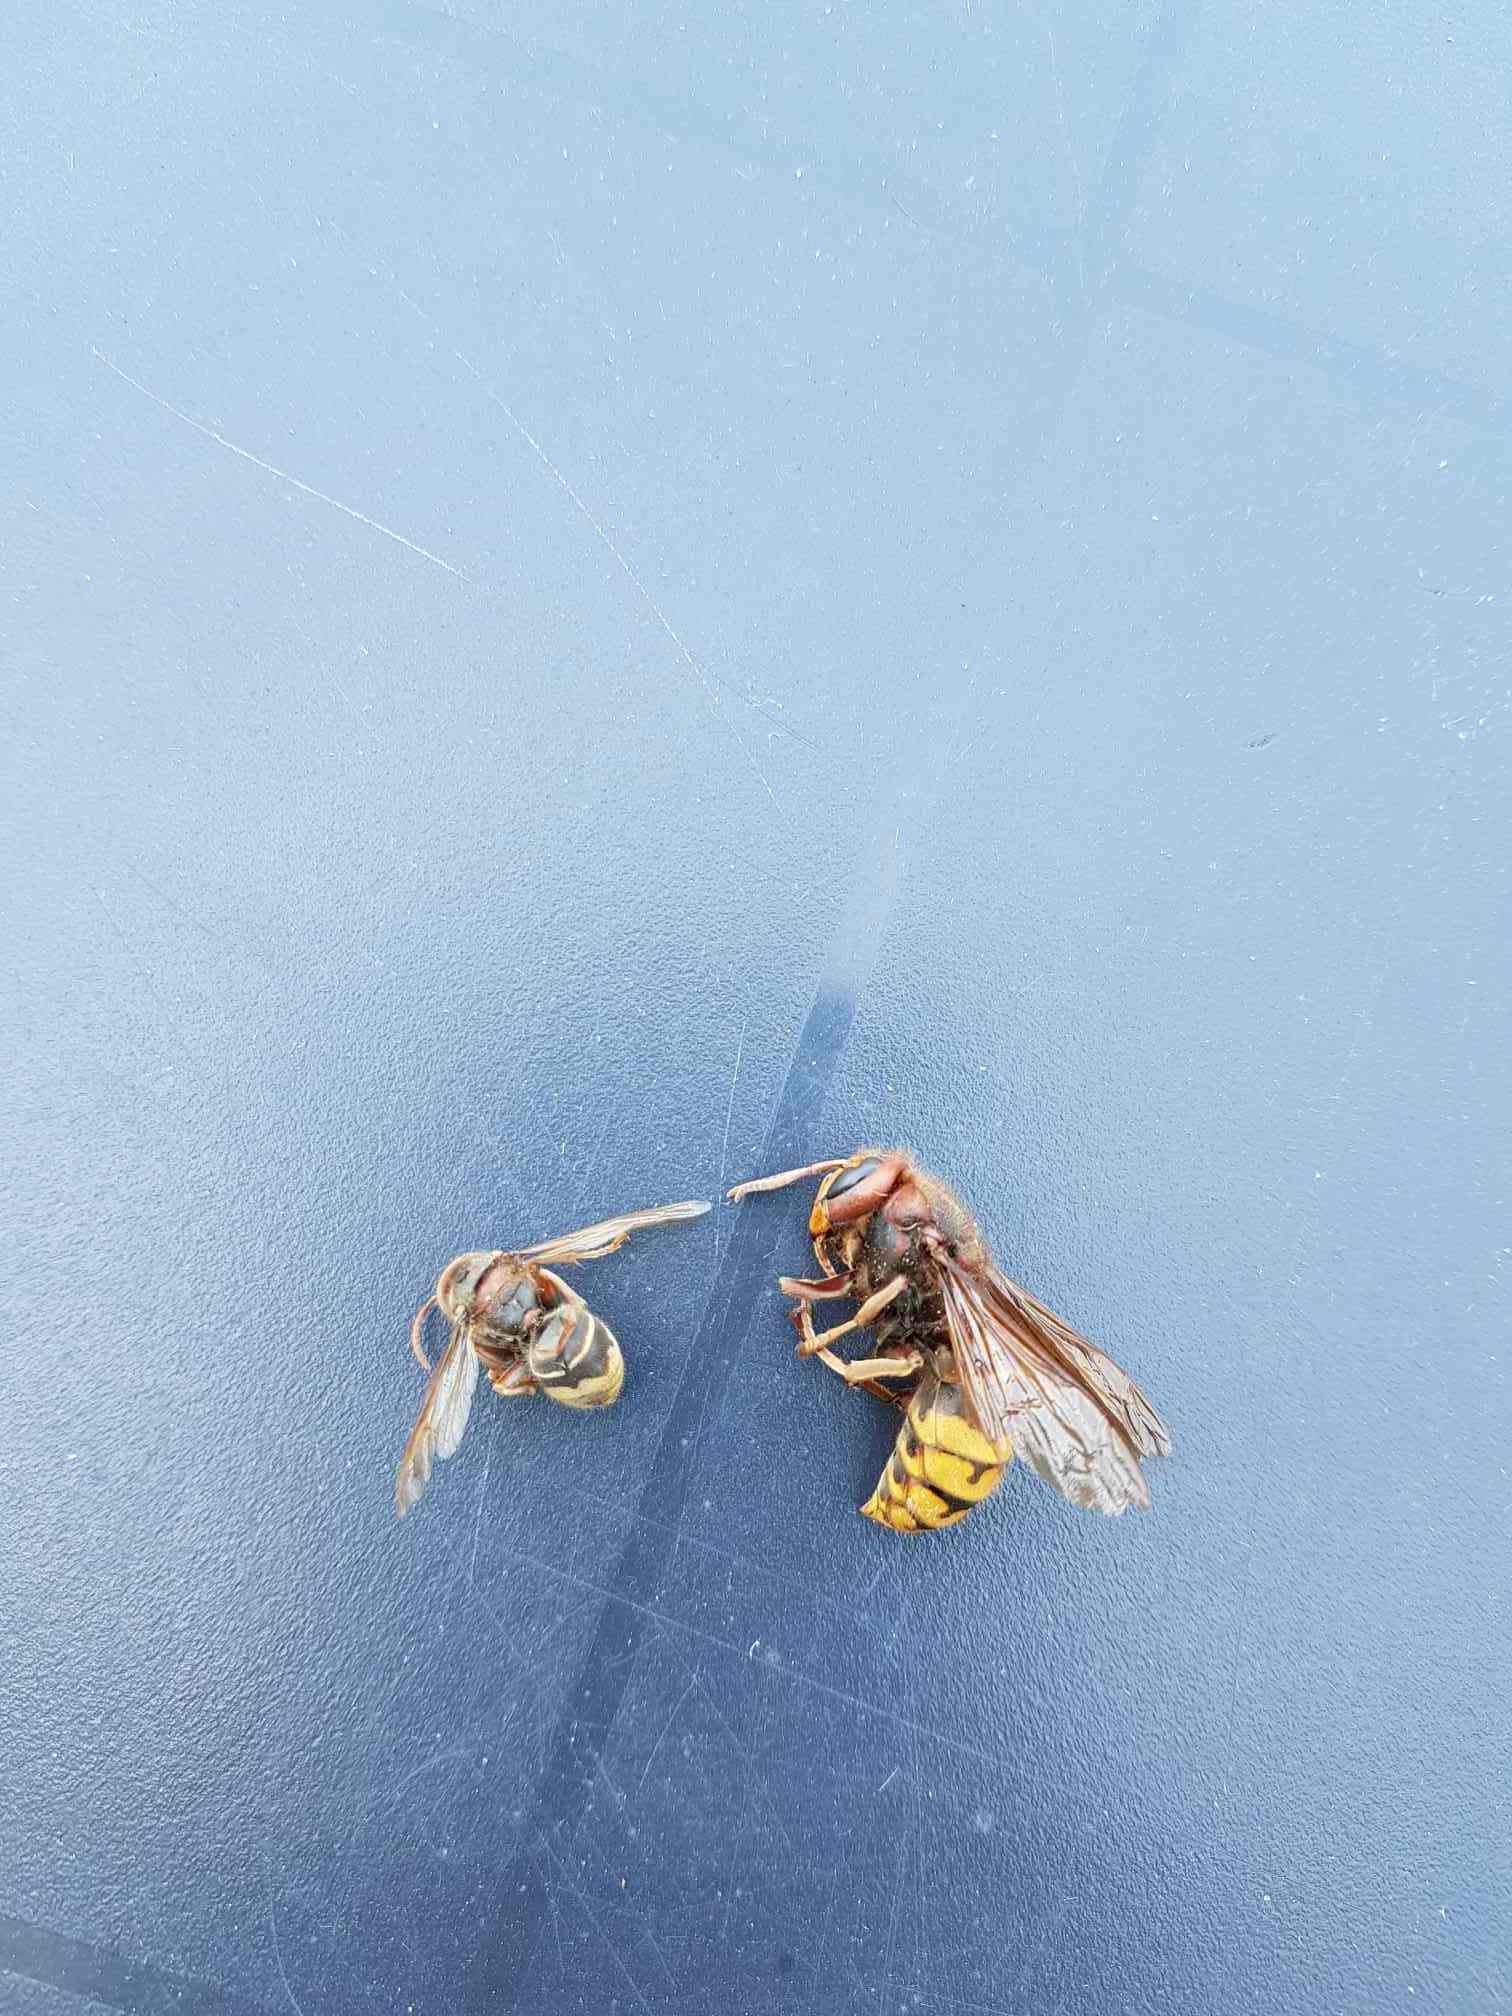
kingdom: Animalia
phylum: Arthropoda
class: Insecta
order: Hymenoptera
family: Vespidae
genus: Vespa
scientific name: Vespa crabro
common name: Hornet
